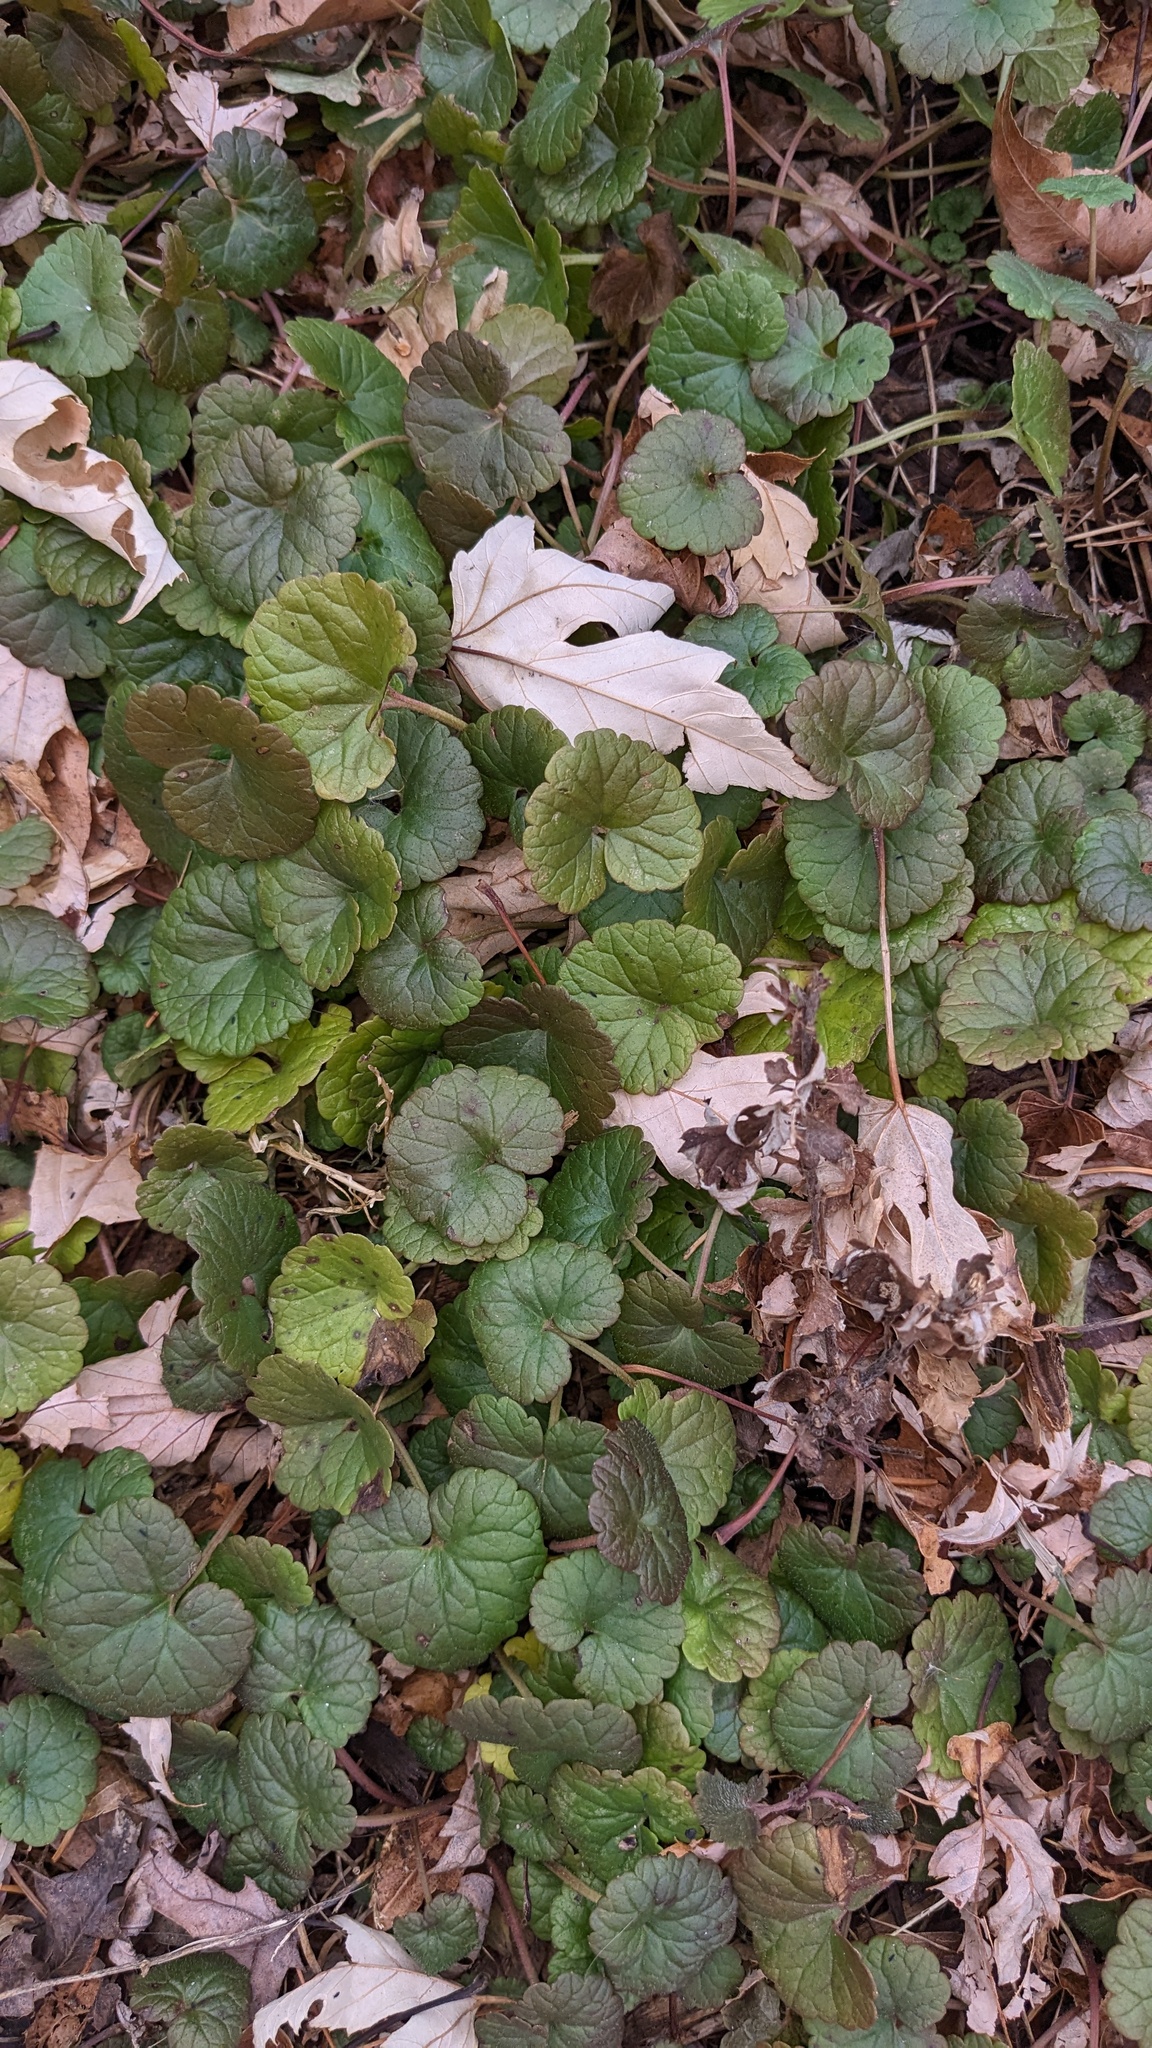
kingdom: Plantae
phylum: Tracheophyta
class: Magnoliopsida
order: Lamiales
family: Lamiaceae
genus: Glechoma
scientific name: Glechoma hederacea
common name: Ground ivy
